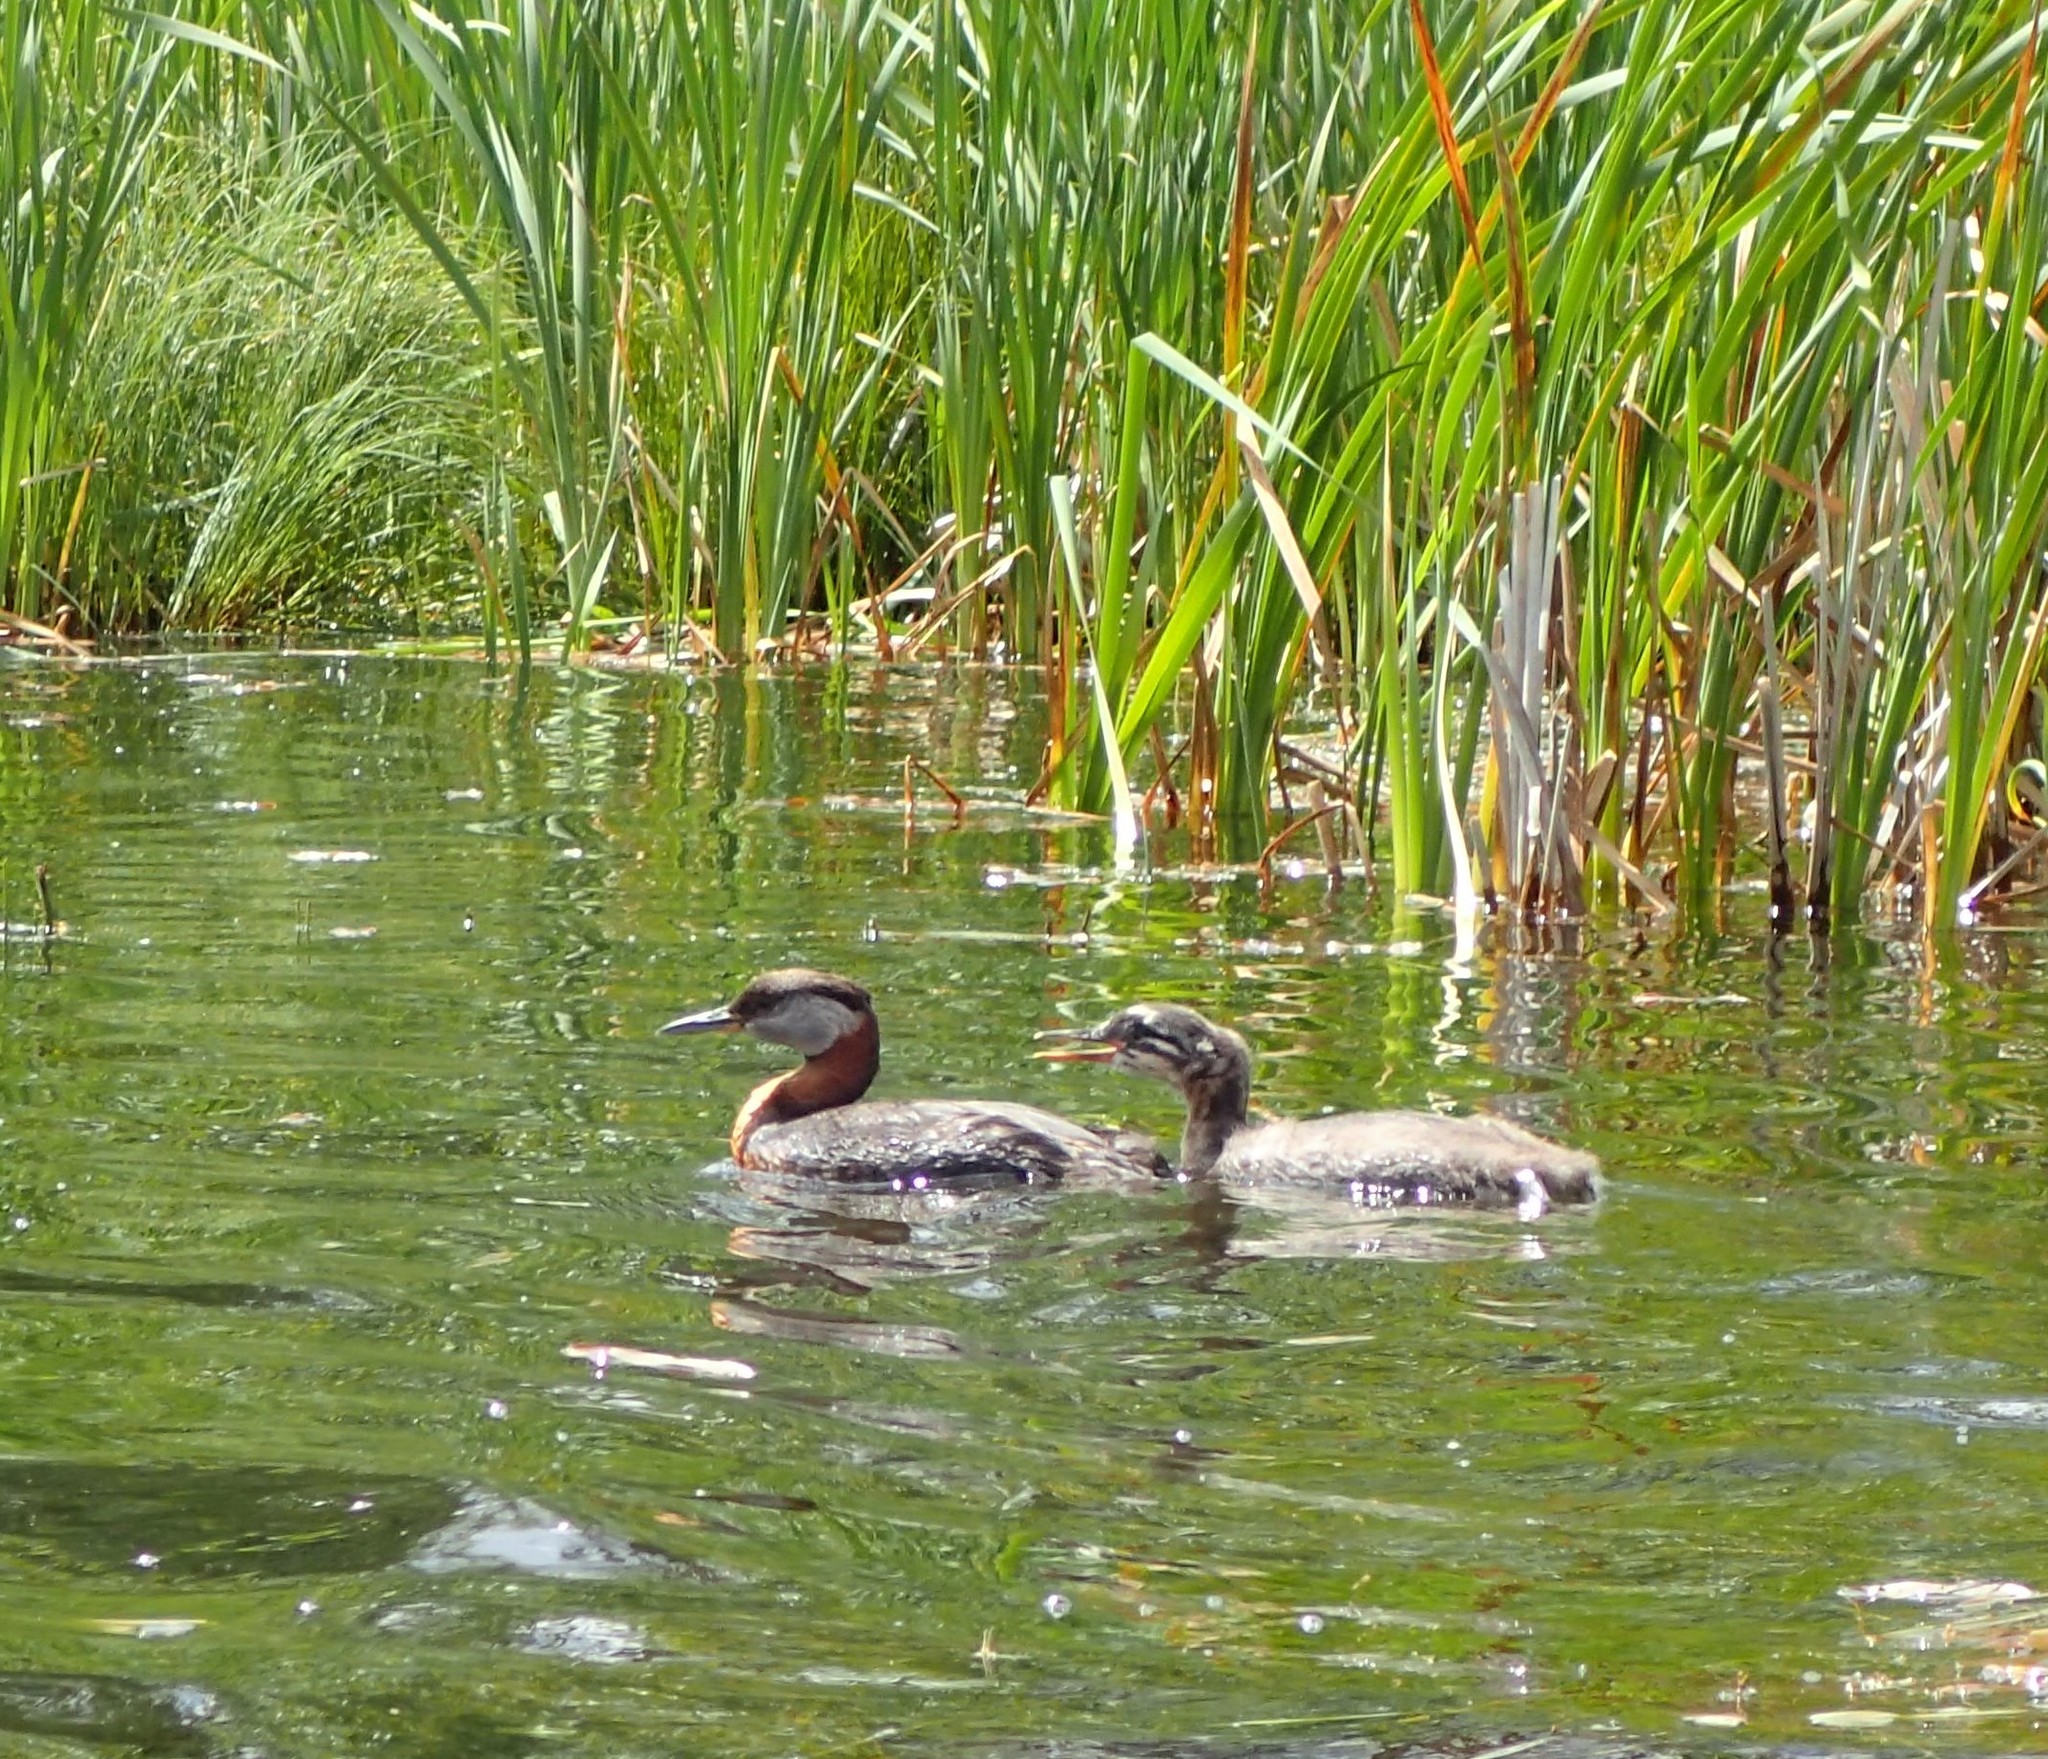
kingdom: Animalia
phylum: Chordata
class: Aves
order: Podicipediformes
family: Podicipedidae
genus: Podiceps
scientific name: Podiceps grisegena
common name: Red-necked grebe
